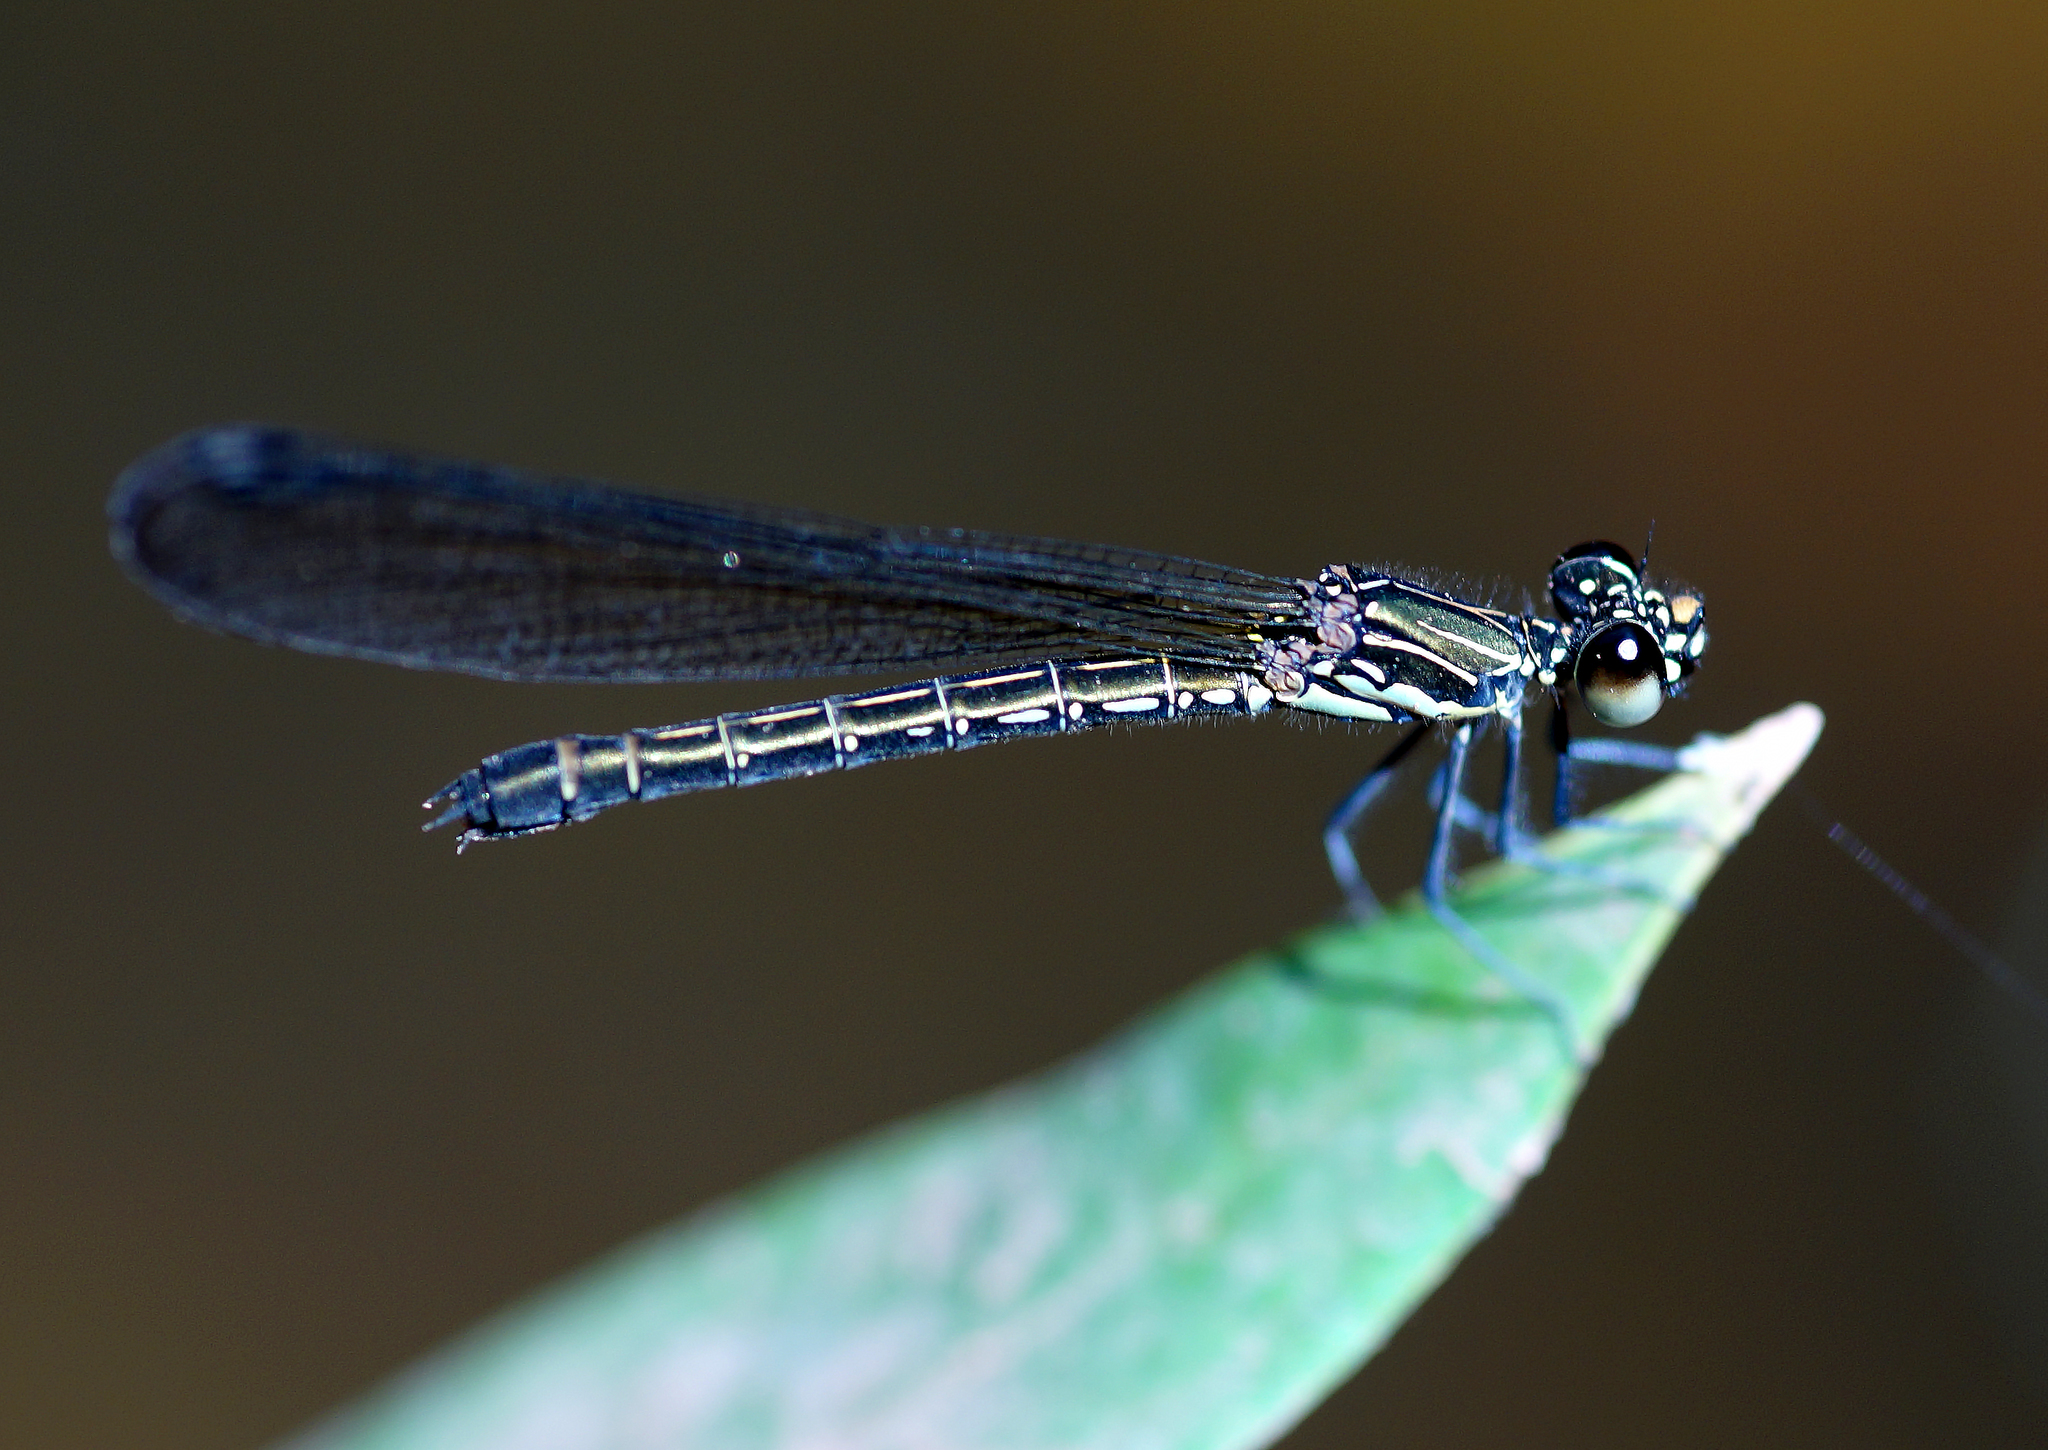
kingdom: Animalia
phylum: Arthropoda
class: Insecta
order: Odonata
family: Chlorocyphidae
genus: Heliocypha
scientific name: Heliocypha biforata
